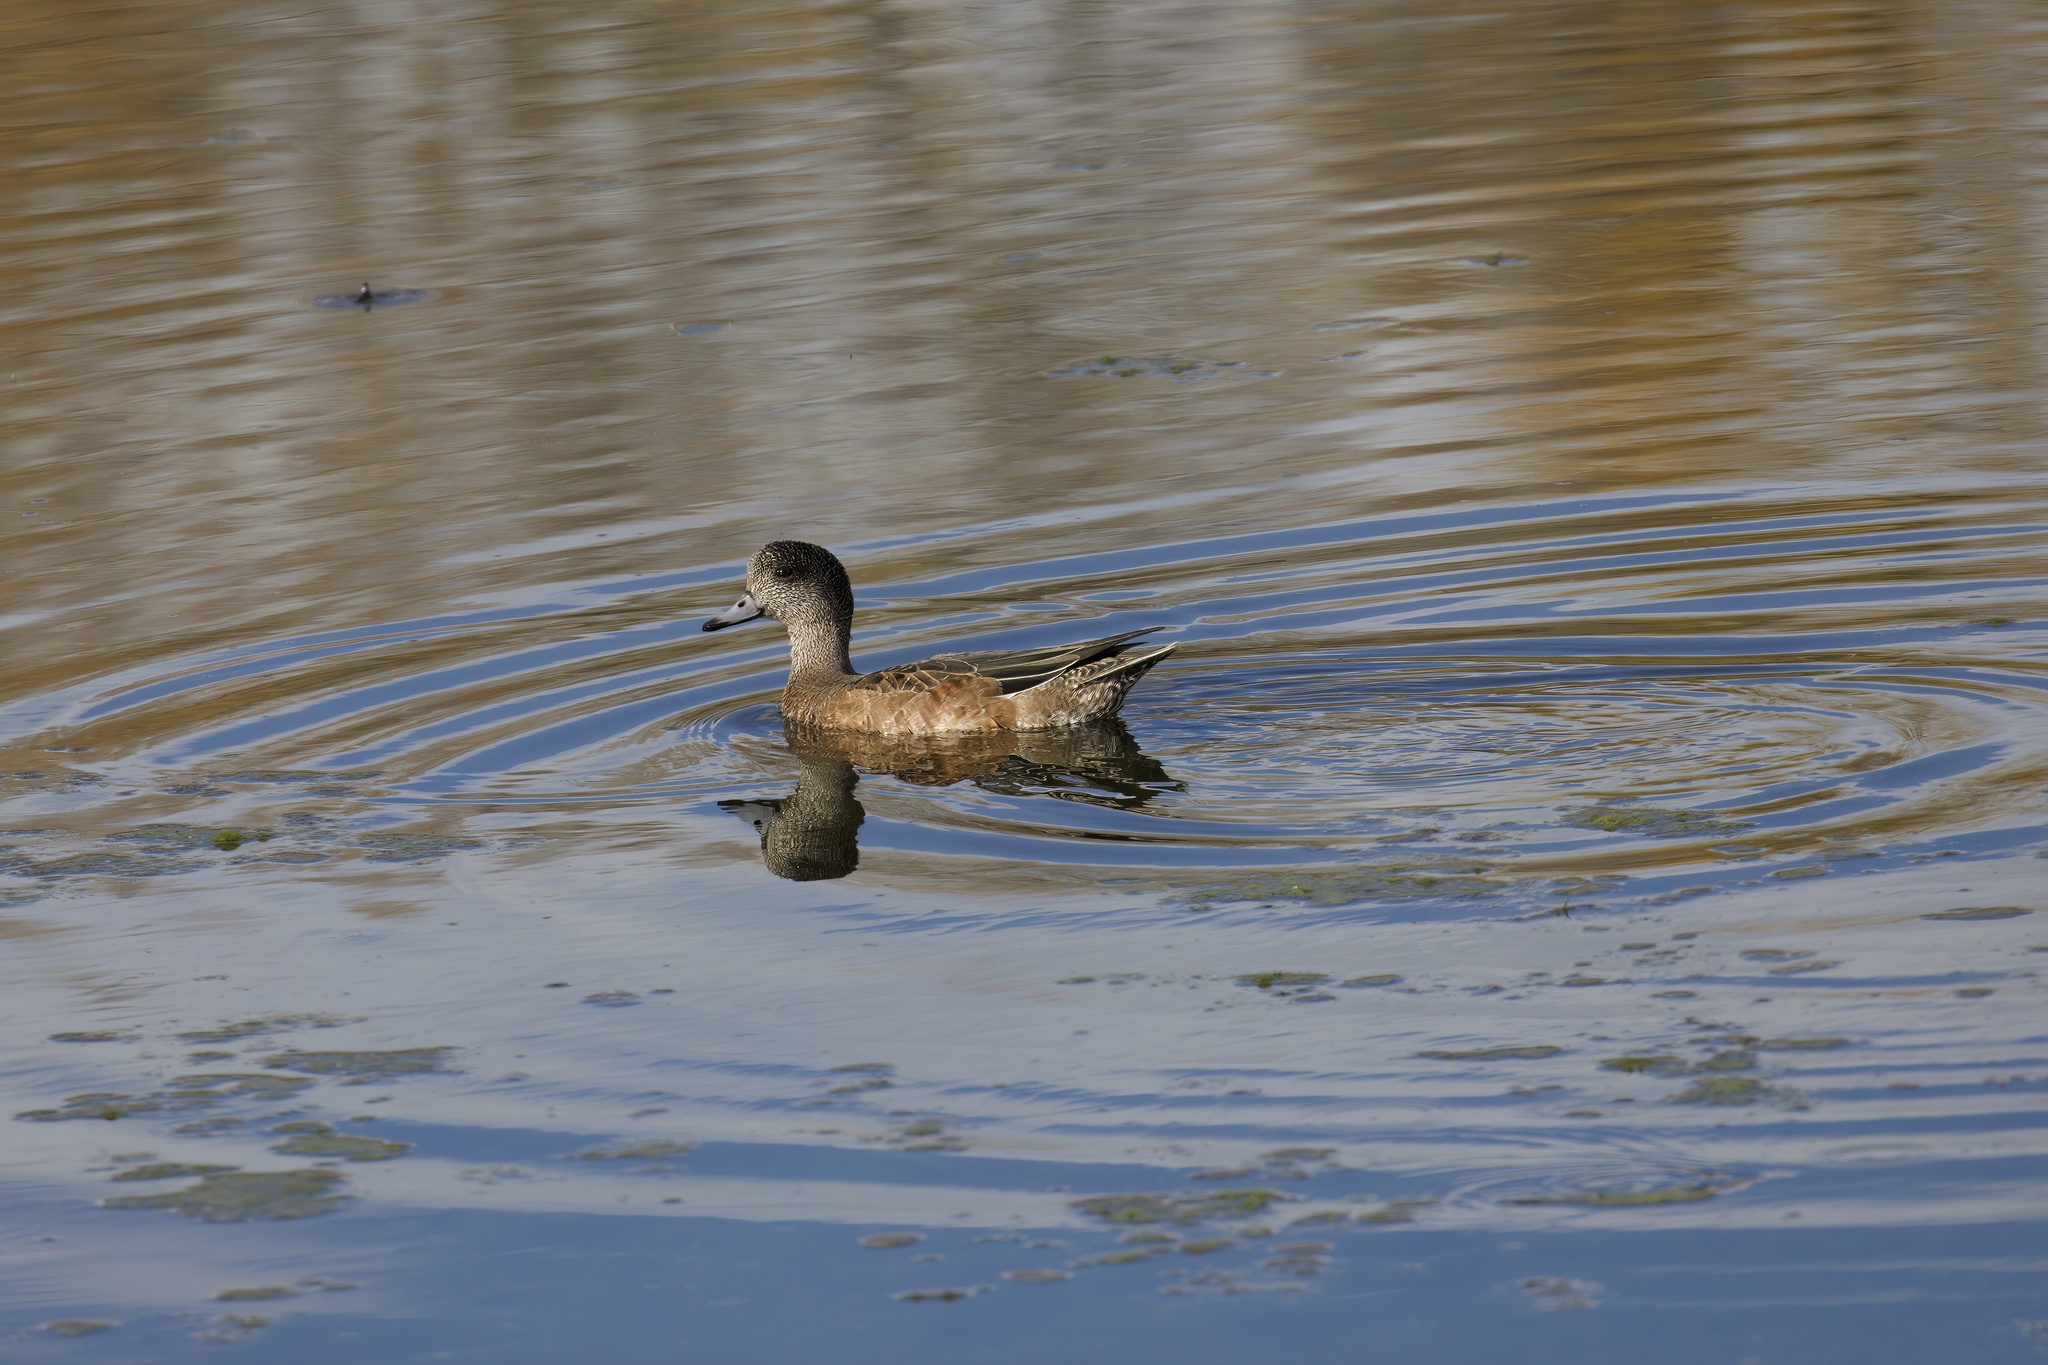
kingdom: Animalia
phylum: Chordata
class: Aves
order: Anseriformes
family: Anatidae
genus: Mareca
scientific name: Mareca americana
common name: American wigeon
